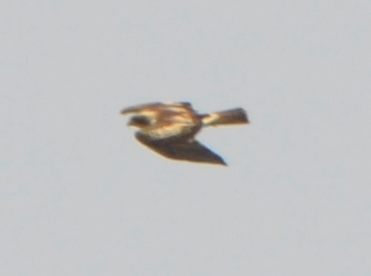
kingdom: Animalia
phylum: Chordata
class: Aves
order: Accipitriformes
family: Accipitridae
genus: Hieraaetus
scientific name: Hieraaetus pennatus
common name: Booted eagle
